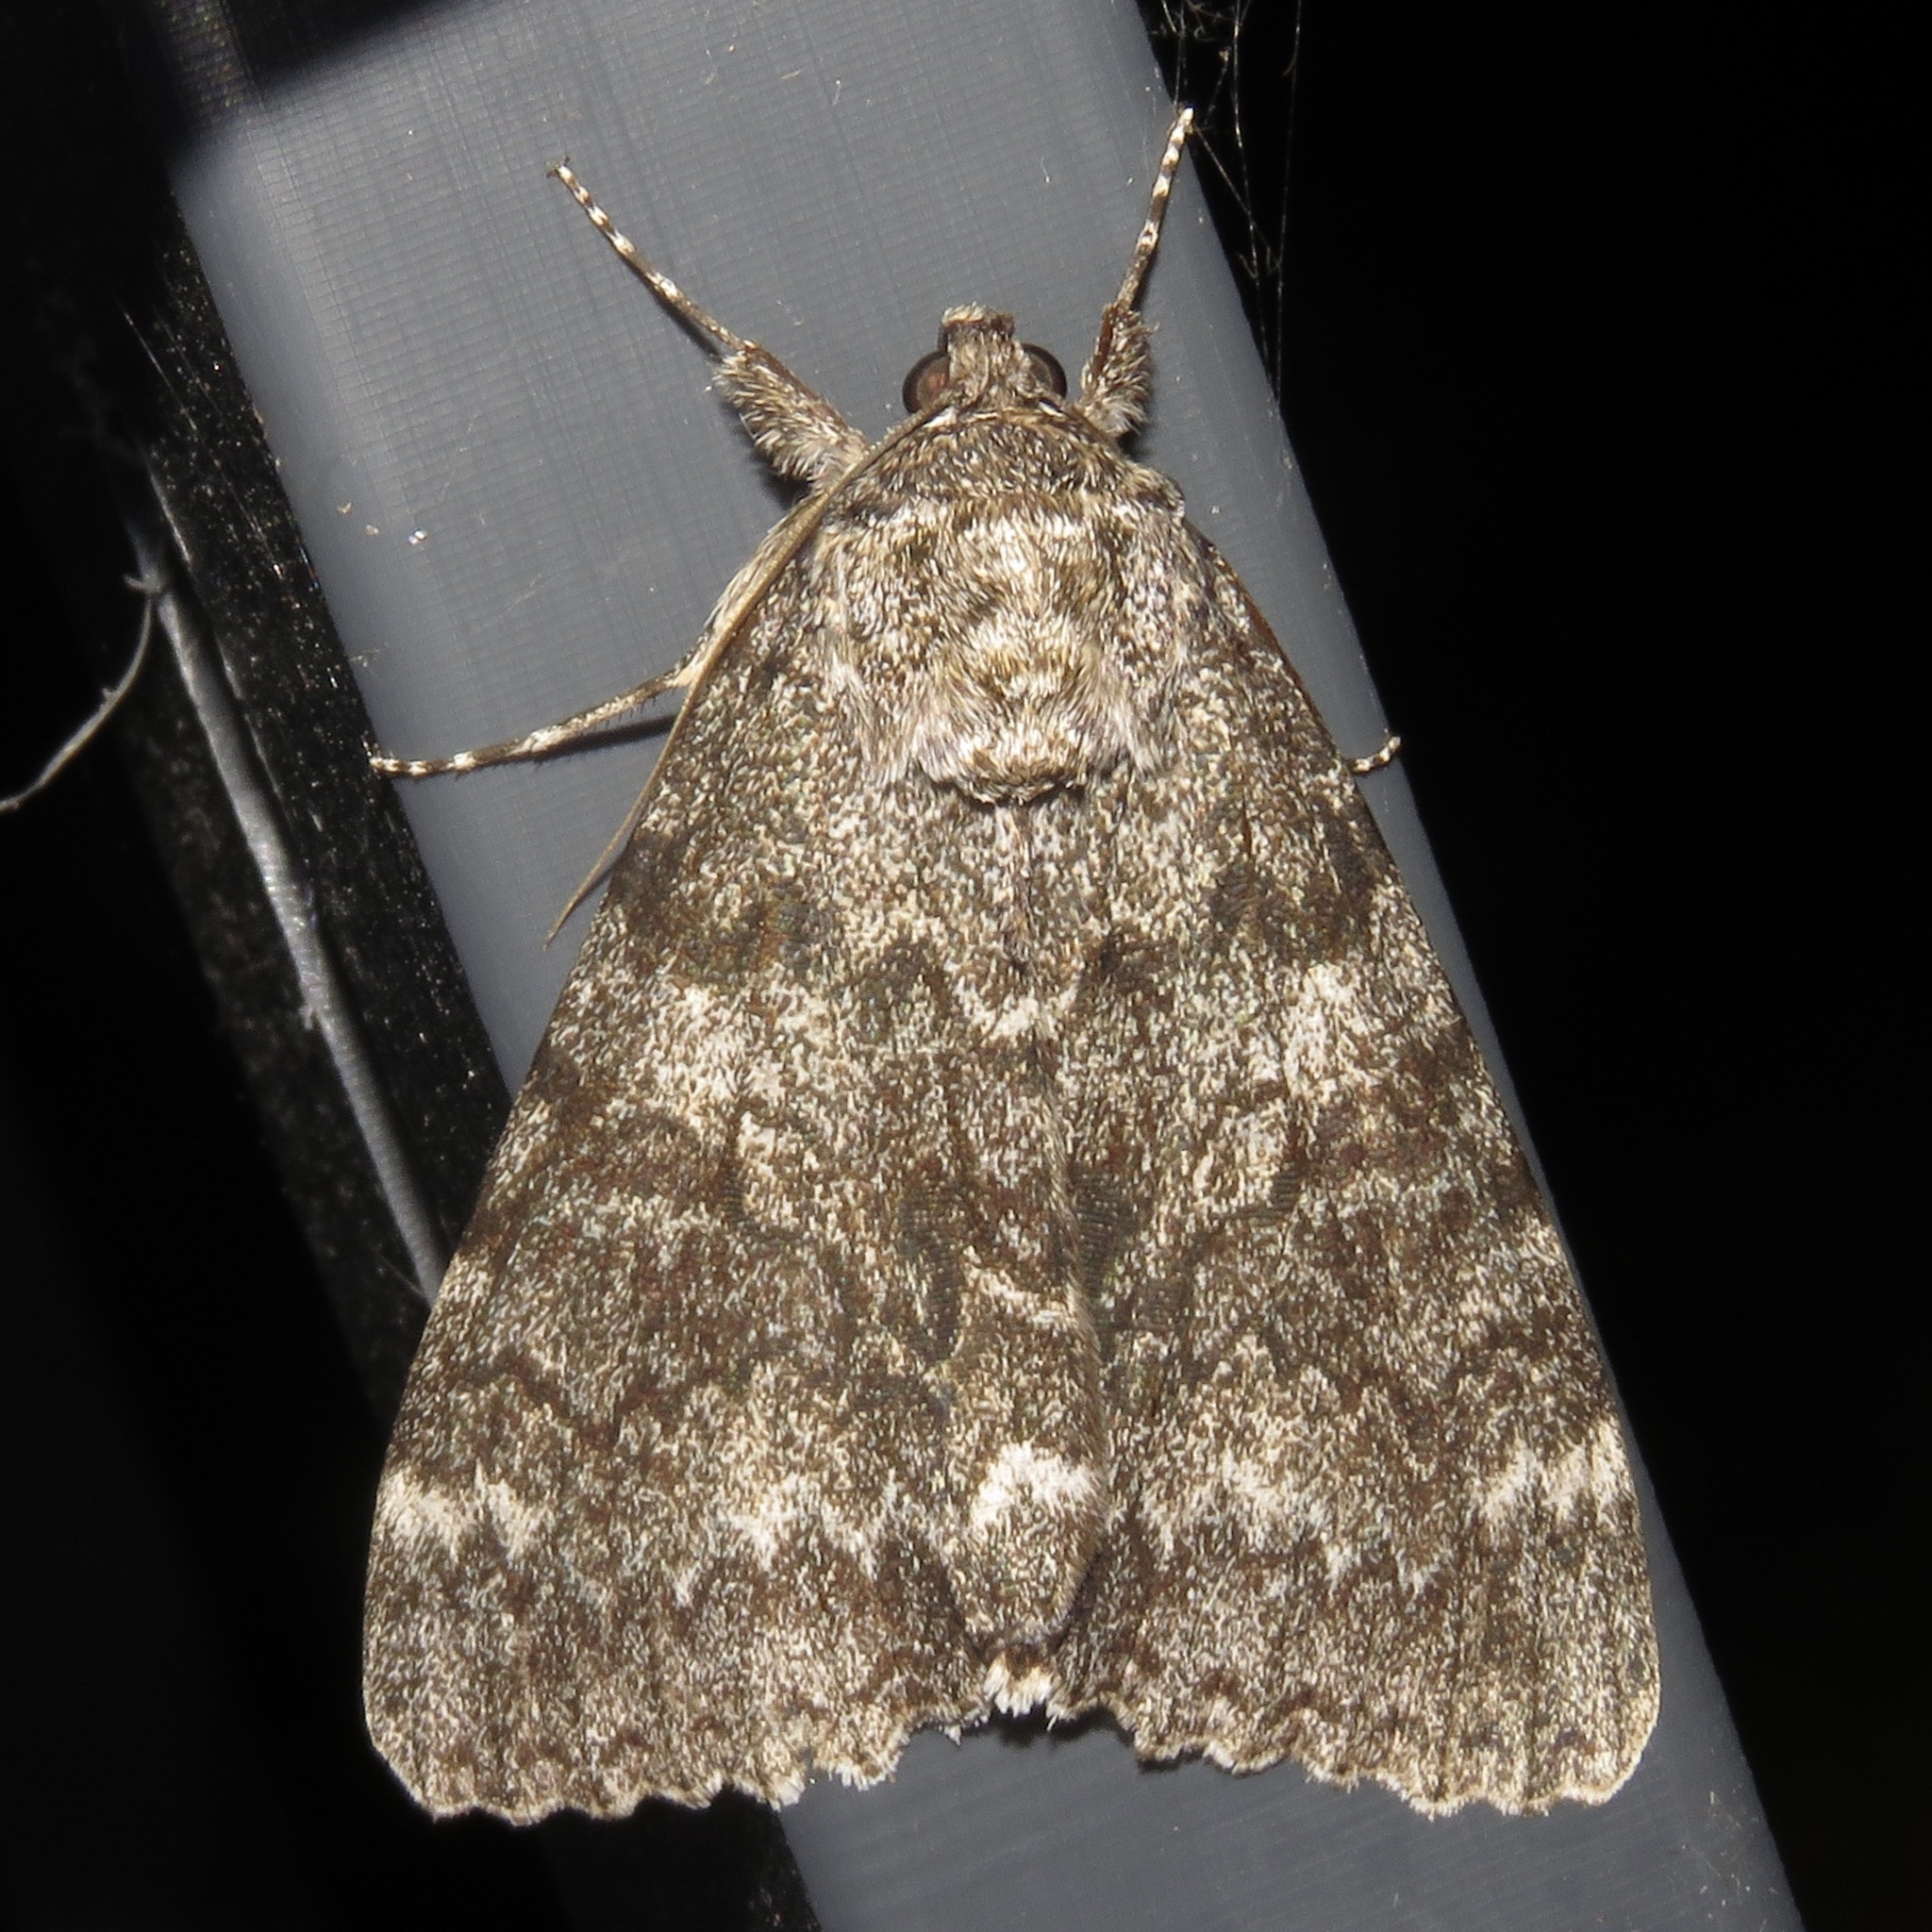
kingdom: Animalia
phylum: Arthropoda
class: Insecta
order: Lepidoptera
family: Erebidae
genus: Catocala
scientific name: Catocala unijuga
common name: Once-married underwing
